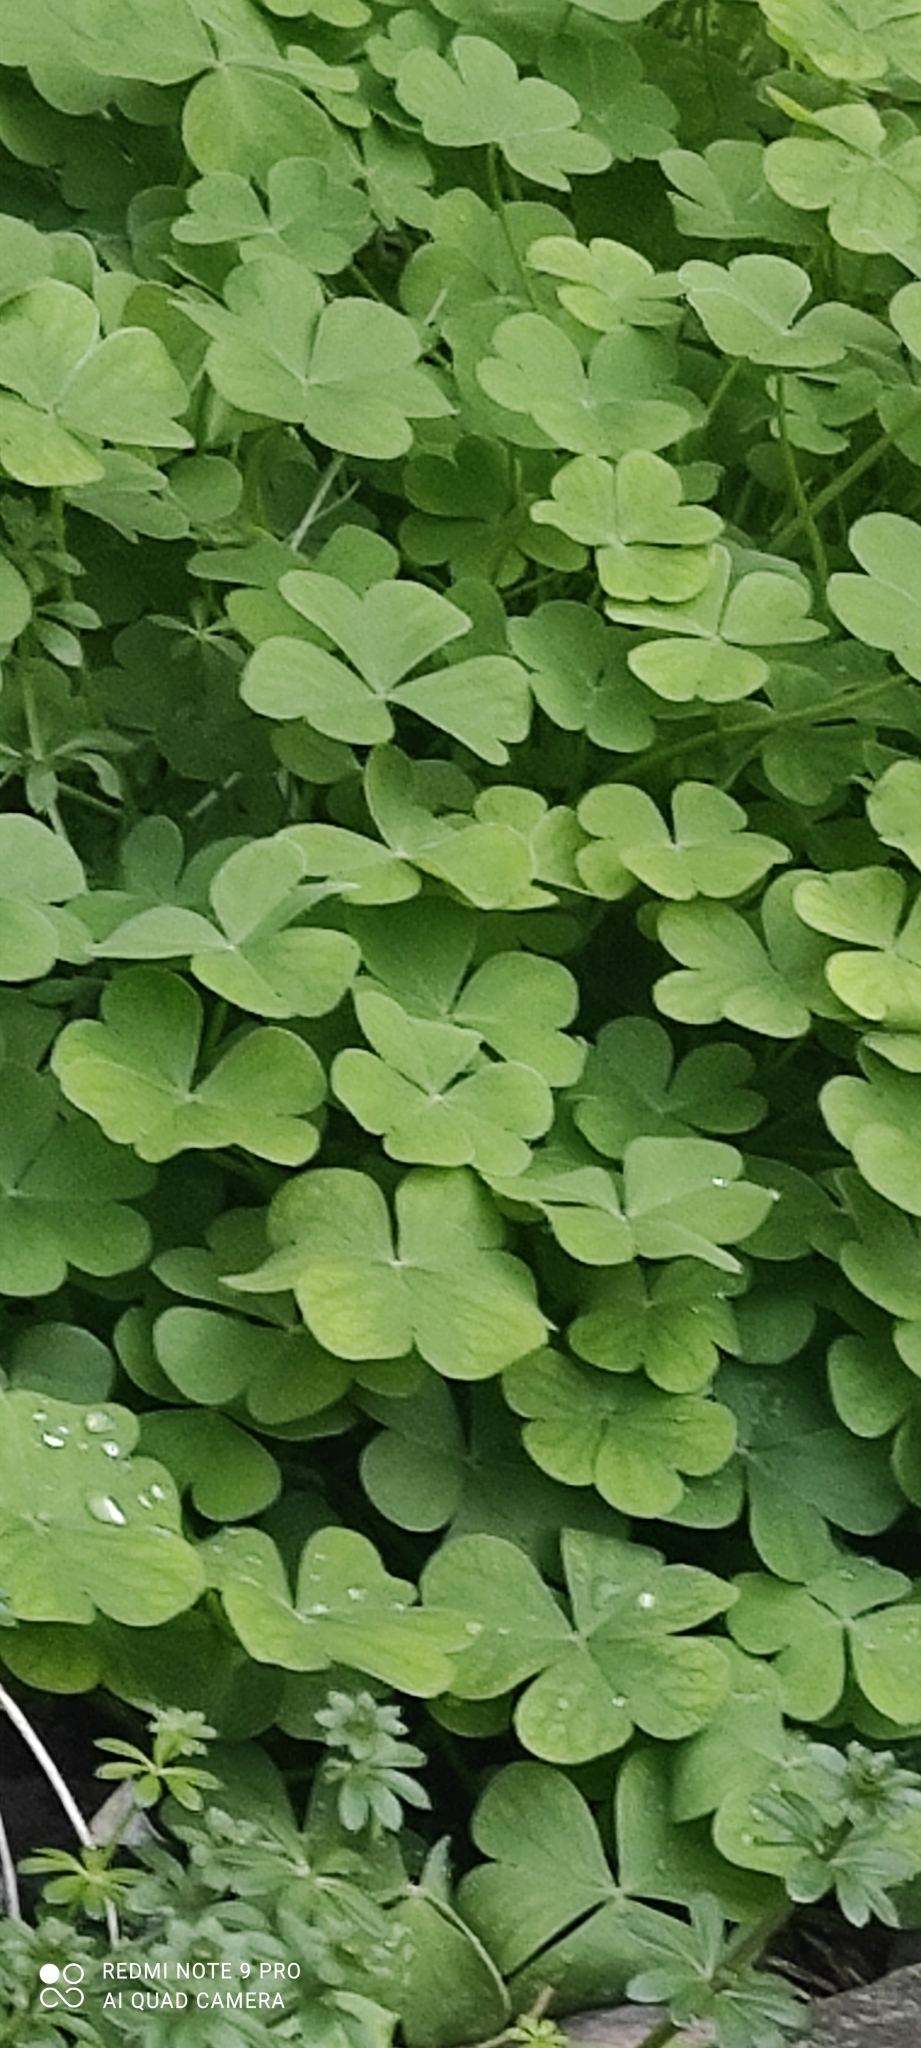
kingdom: Plantae
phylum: Tracheophyta
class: Magnoliopsida
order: Oxalidales
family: Oxalidaceae
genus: Oxalis
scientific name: Oxalis articulata
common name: Pink-sorrel
